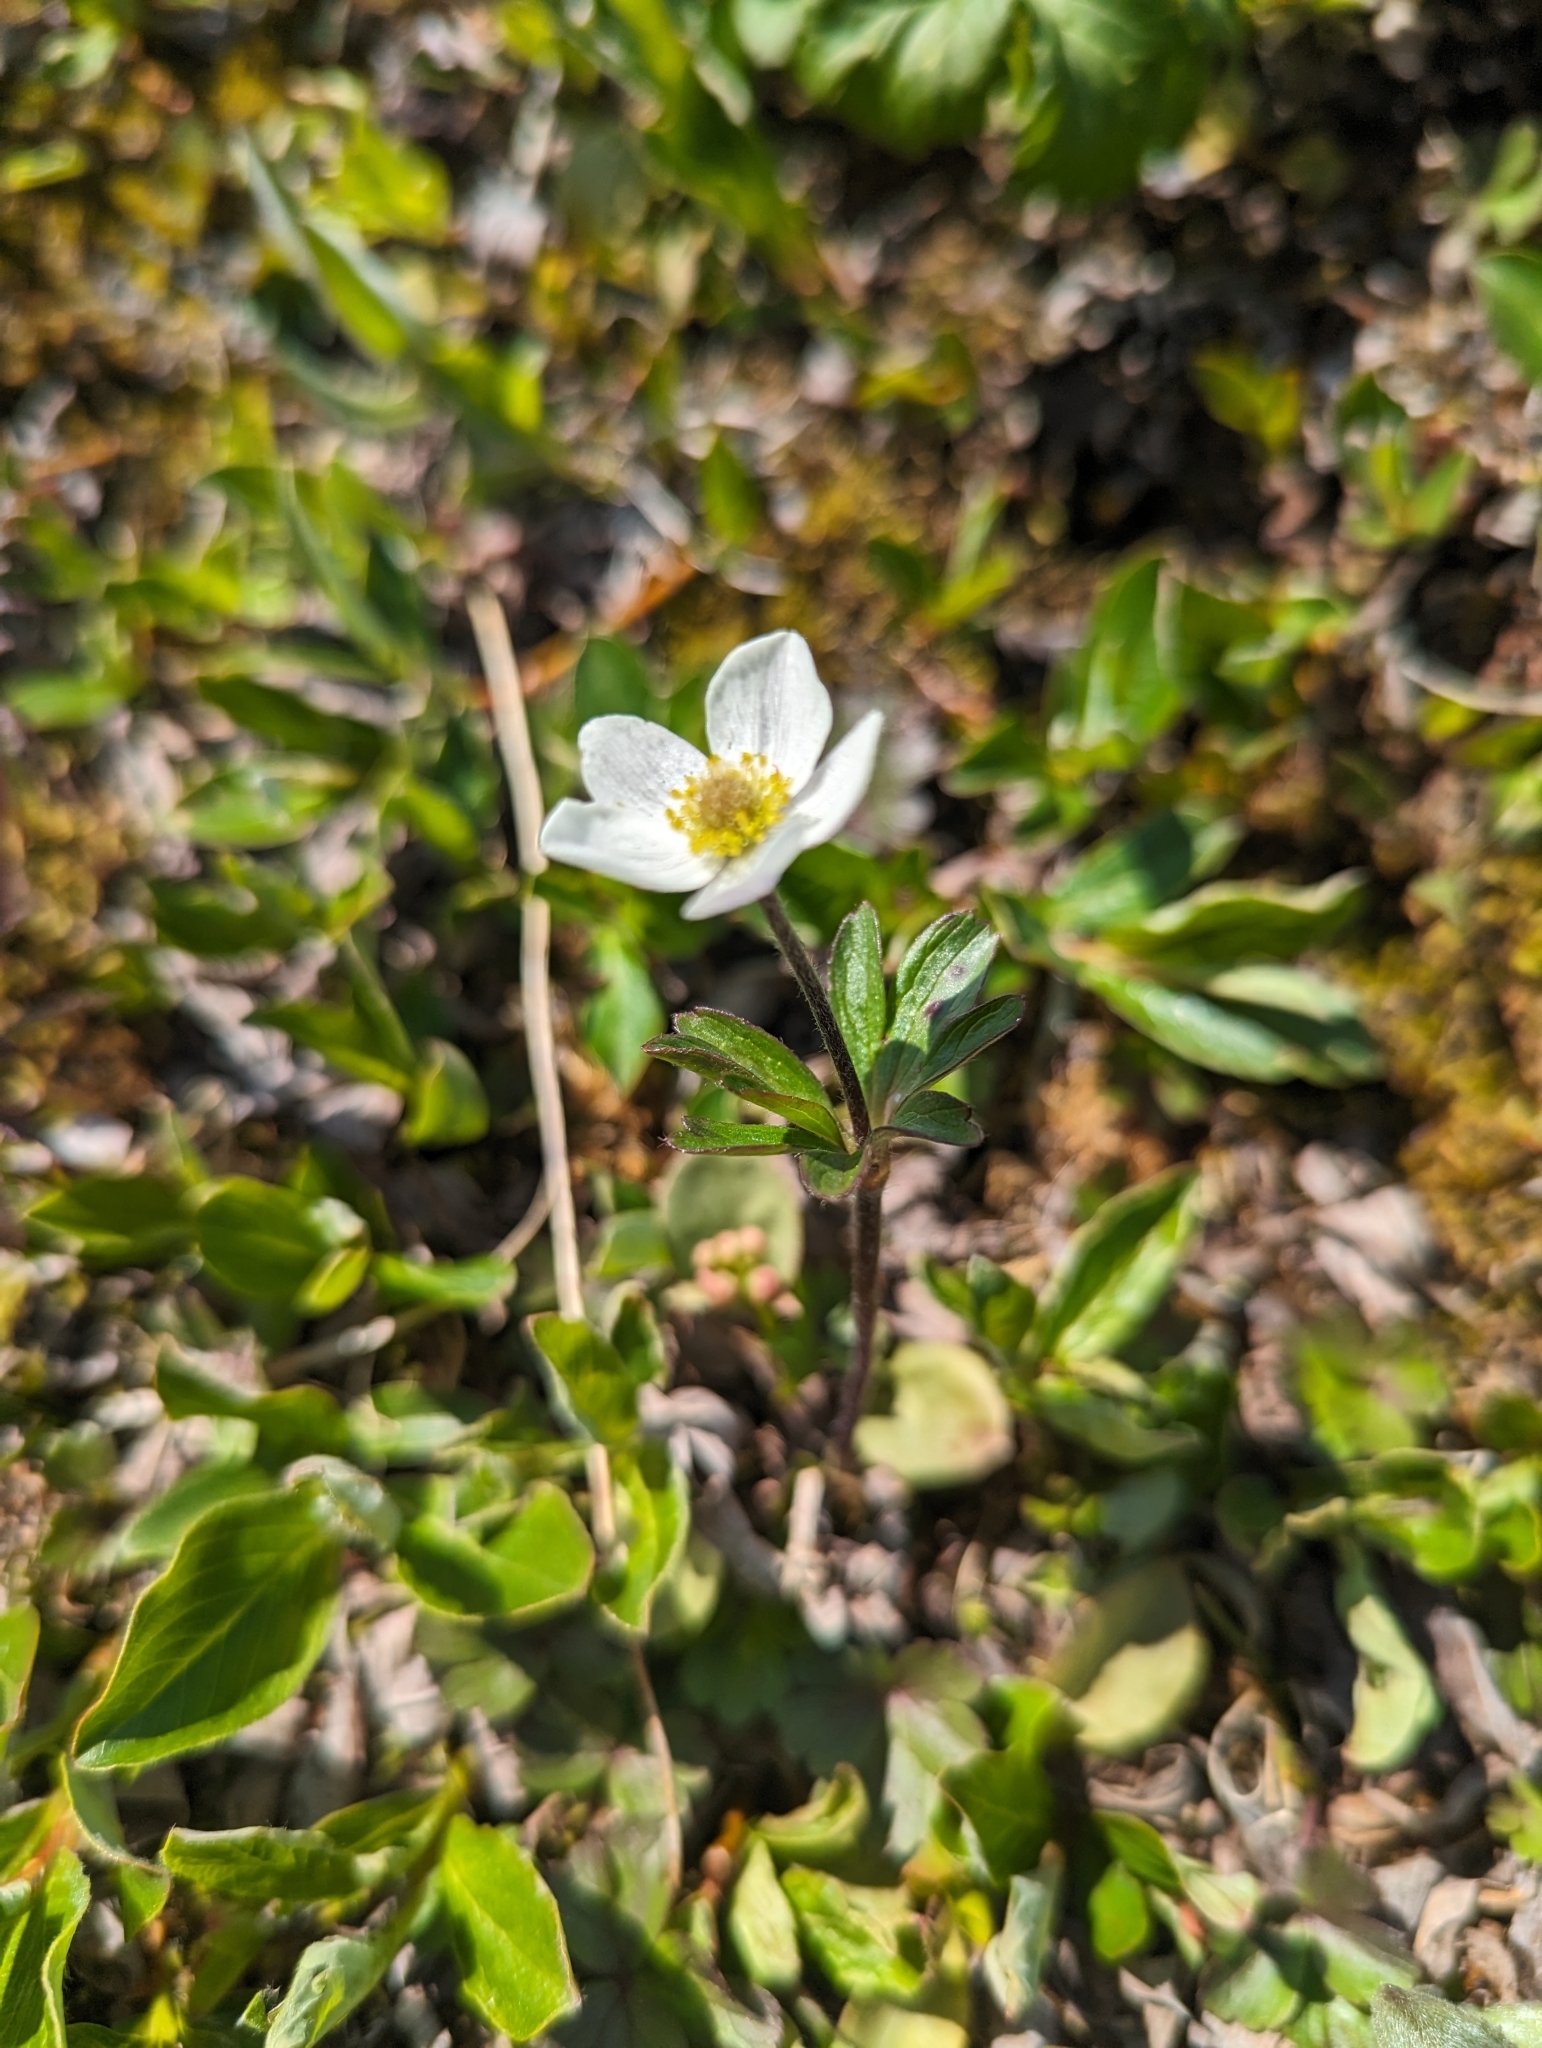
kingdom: Plantae
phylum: Tracheophyta
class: Magnoliopsida
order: Ranunculales
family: Ranunculaceae
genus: Anemone
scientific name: Anemone parviflora
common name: Northern anemone
